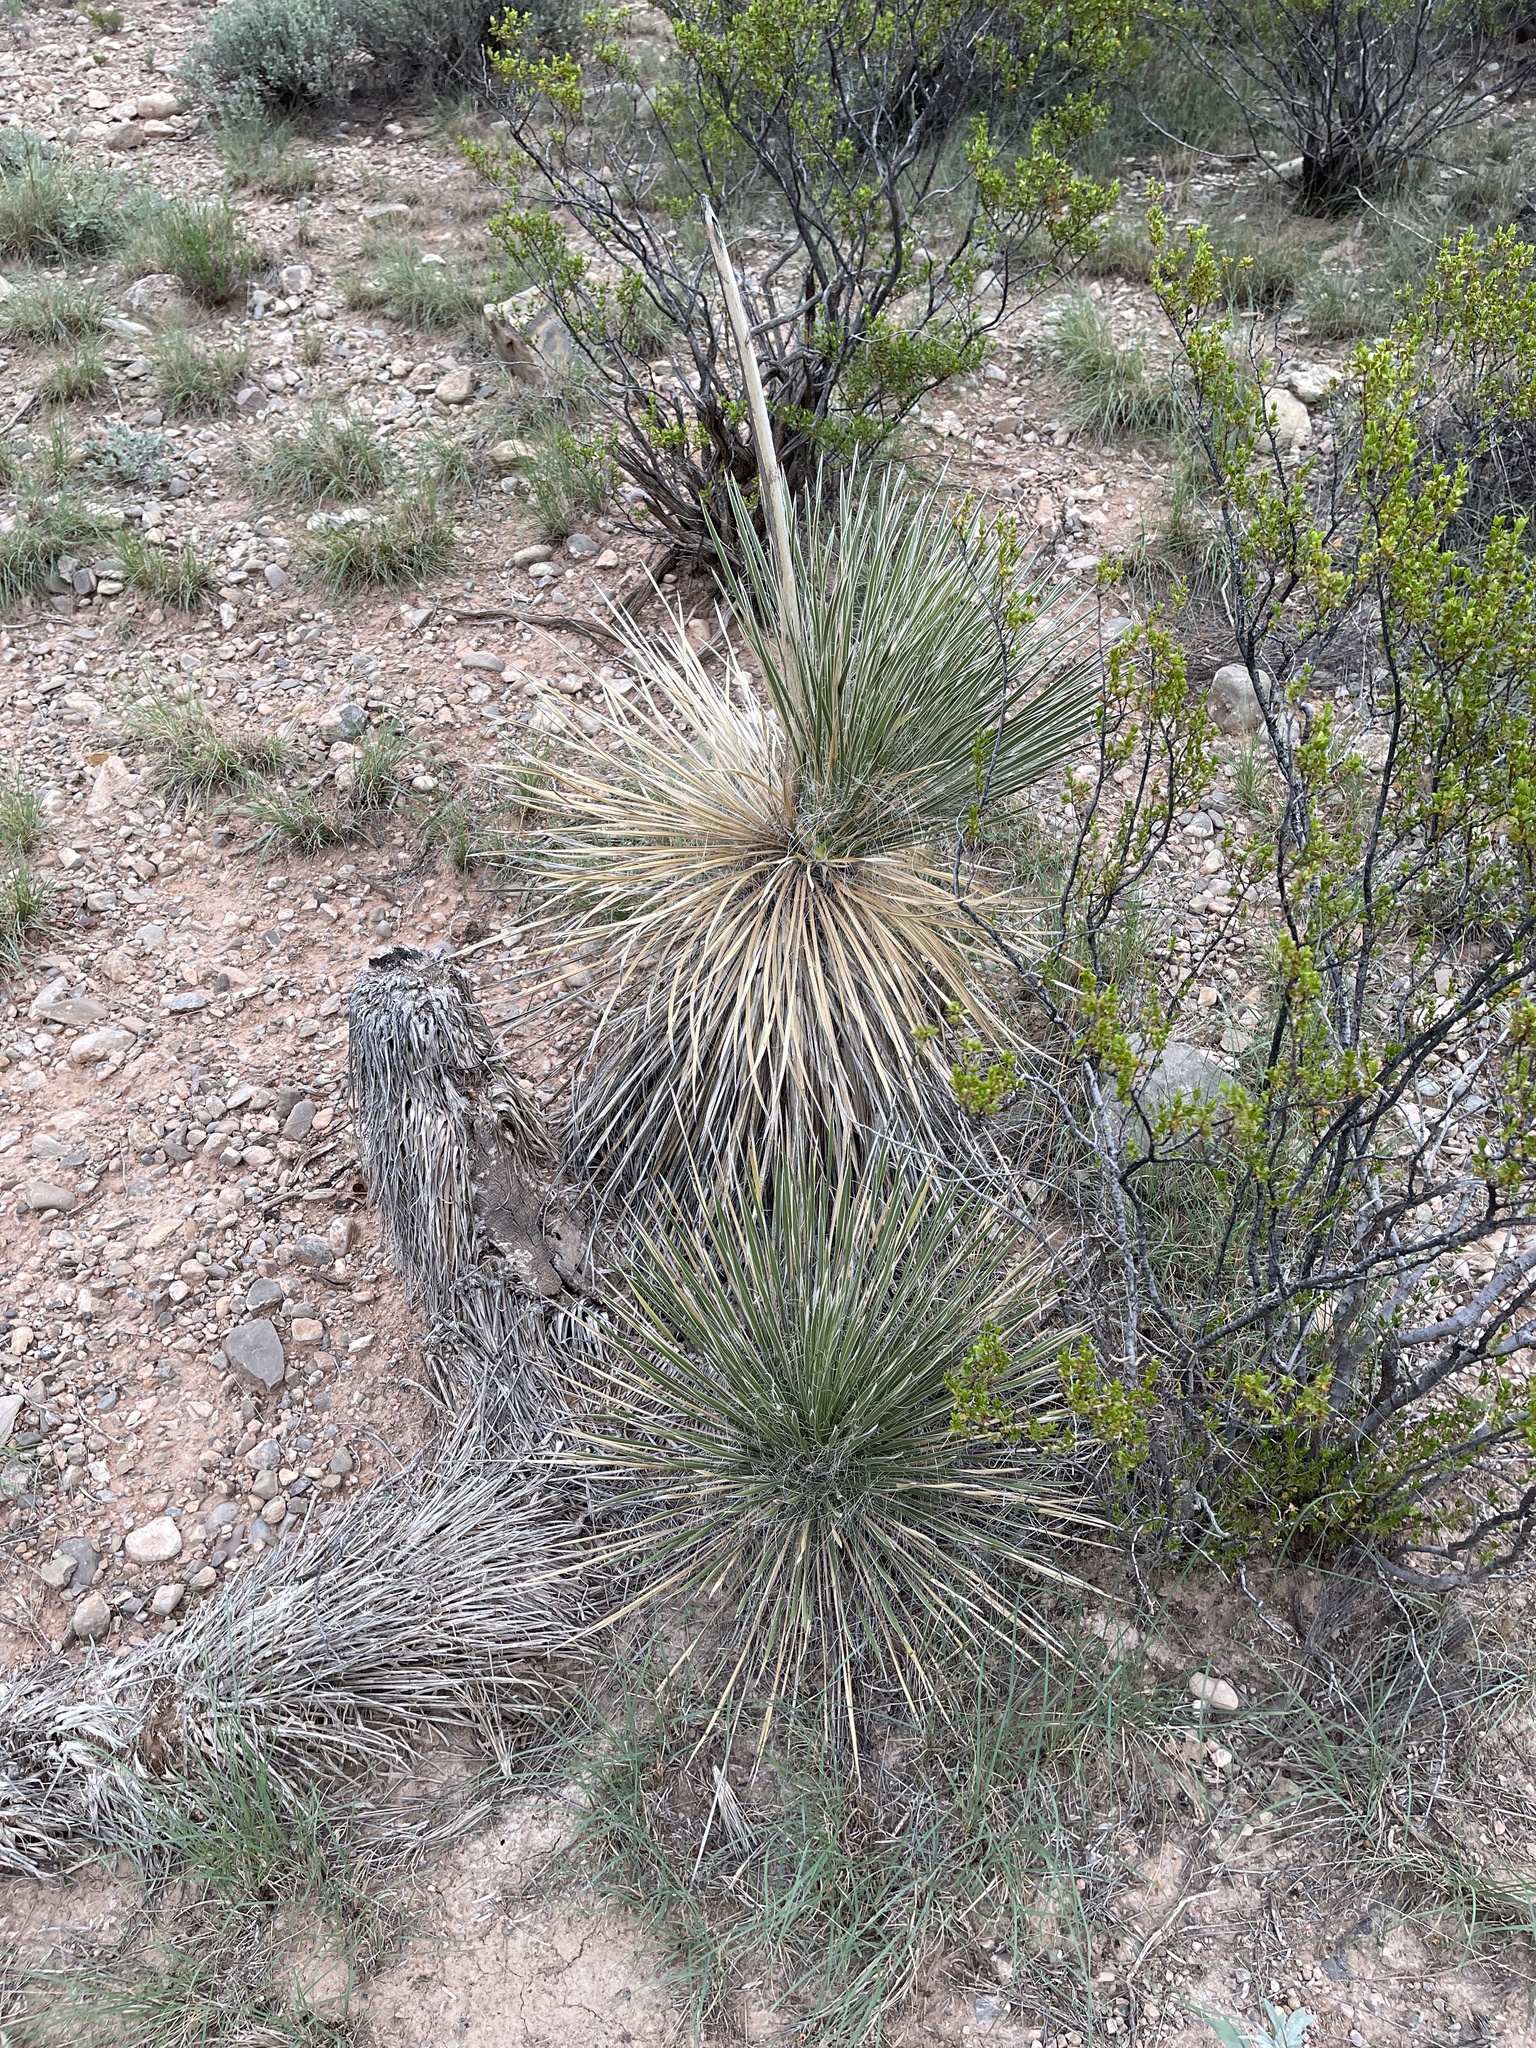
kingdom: Plantae
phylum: Tracheophyta
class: Liliopsida
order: Asparagales
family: Asparagaceae
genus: Yucca
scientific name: Yucca elata
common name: Palmella
